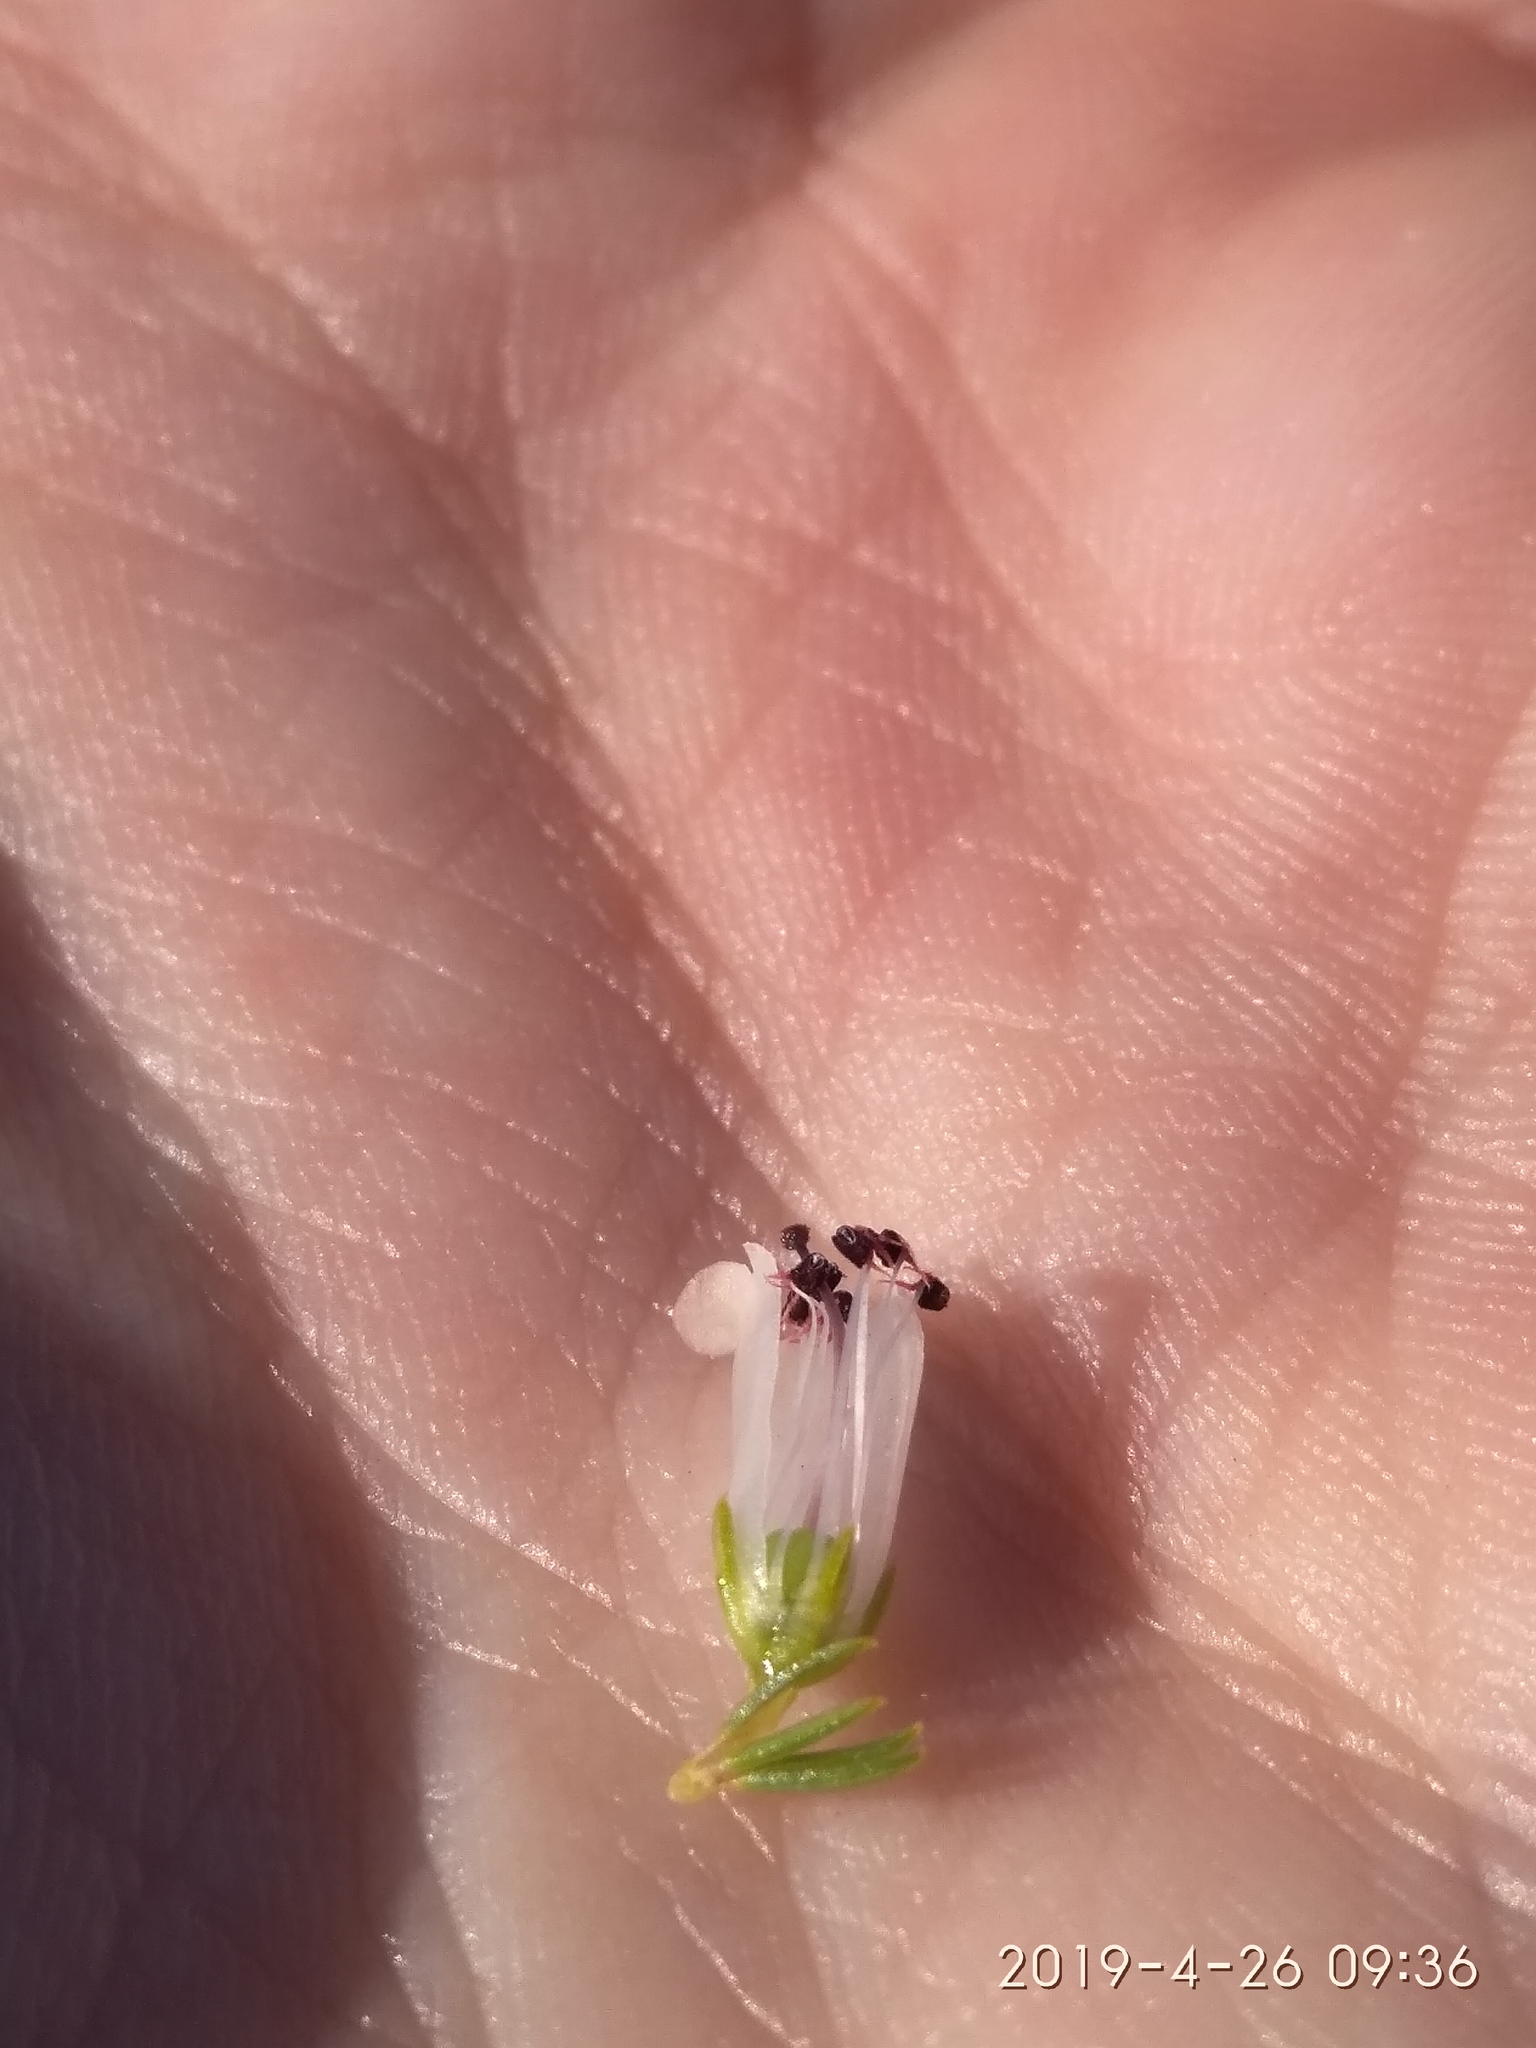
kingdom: Plantae
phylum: Tracheophyta
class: Magnoliopsida
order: Ericales
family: Ericaceae
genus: Erica
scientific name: Erica sitiens
